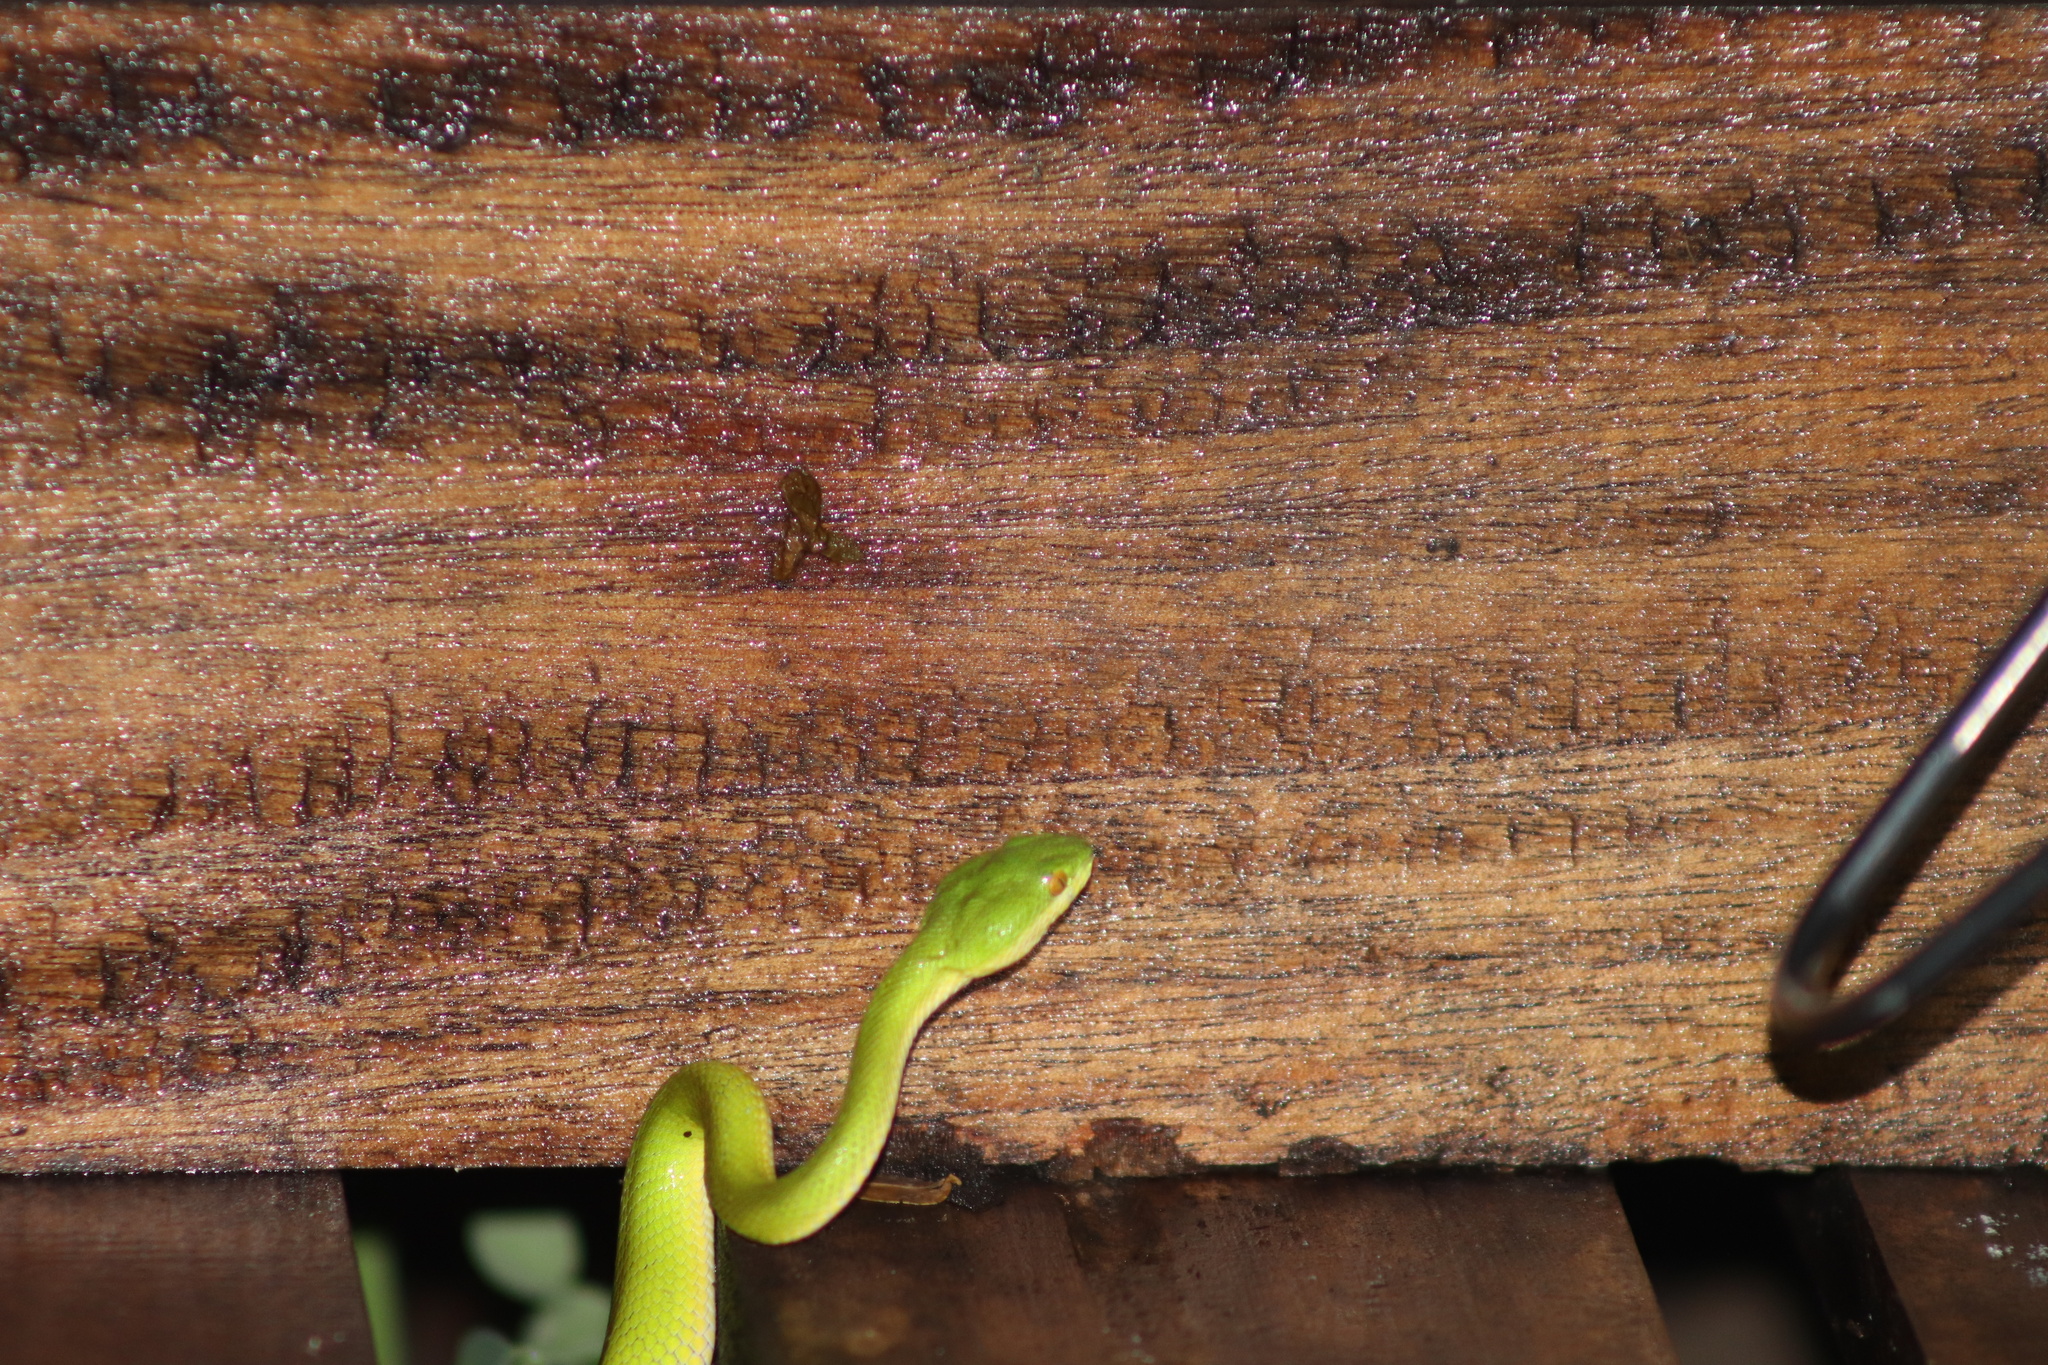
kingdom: Animalia
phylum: Chordata
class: Squamata
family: Viperidae
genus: Trimeresurus
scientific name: Trimeresurus albolabris
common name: White-lipped pitviper
